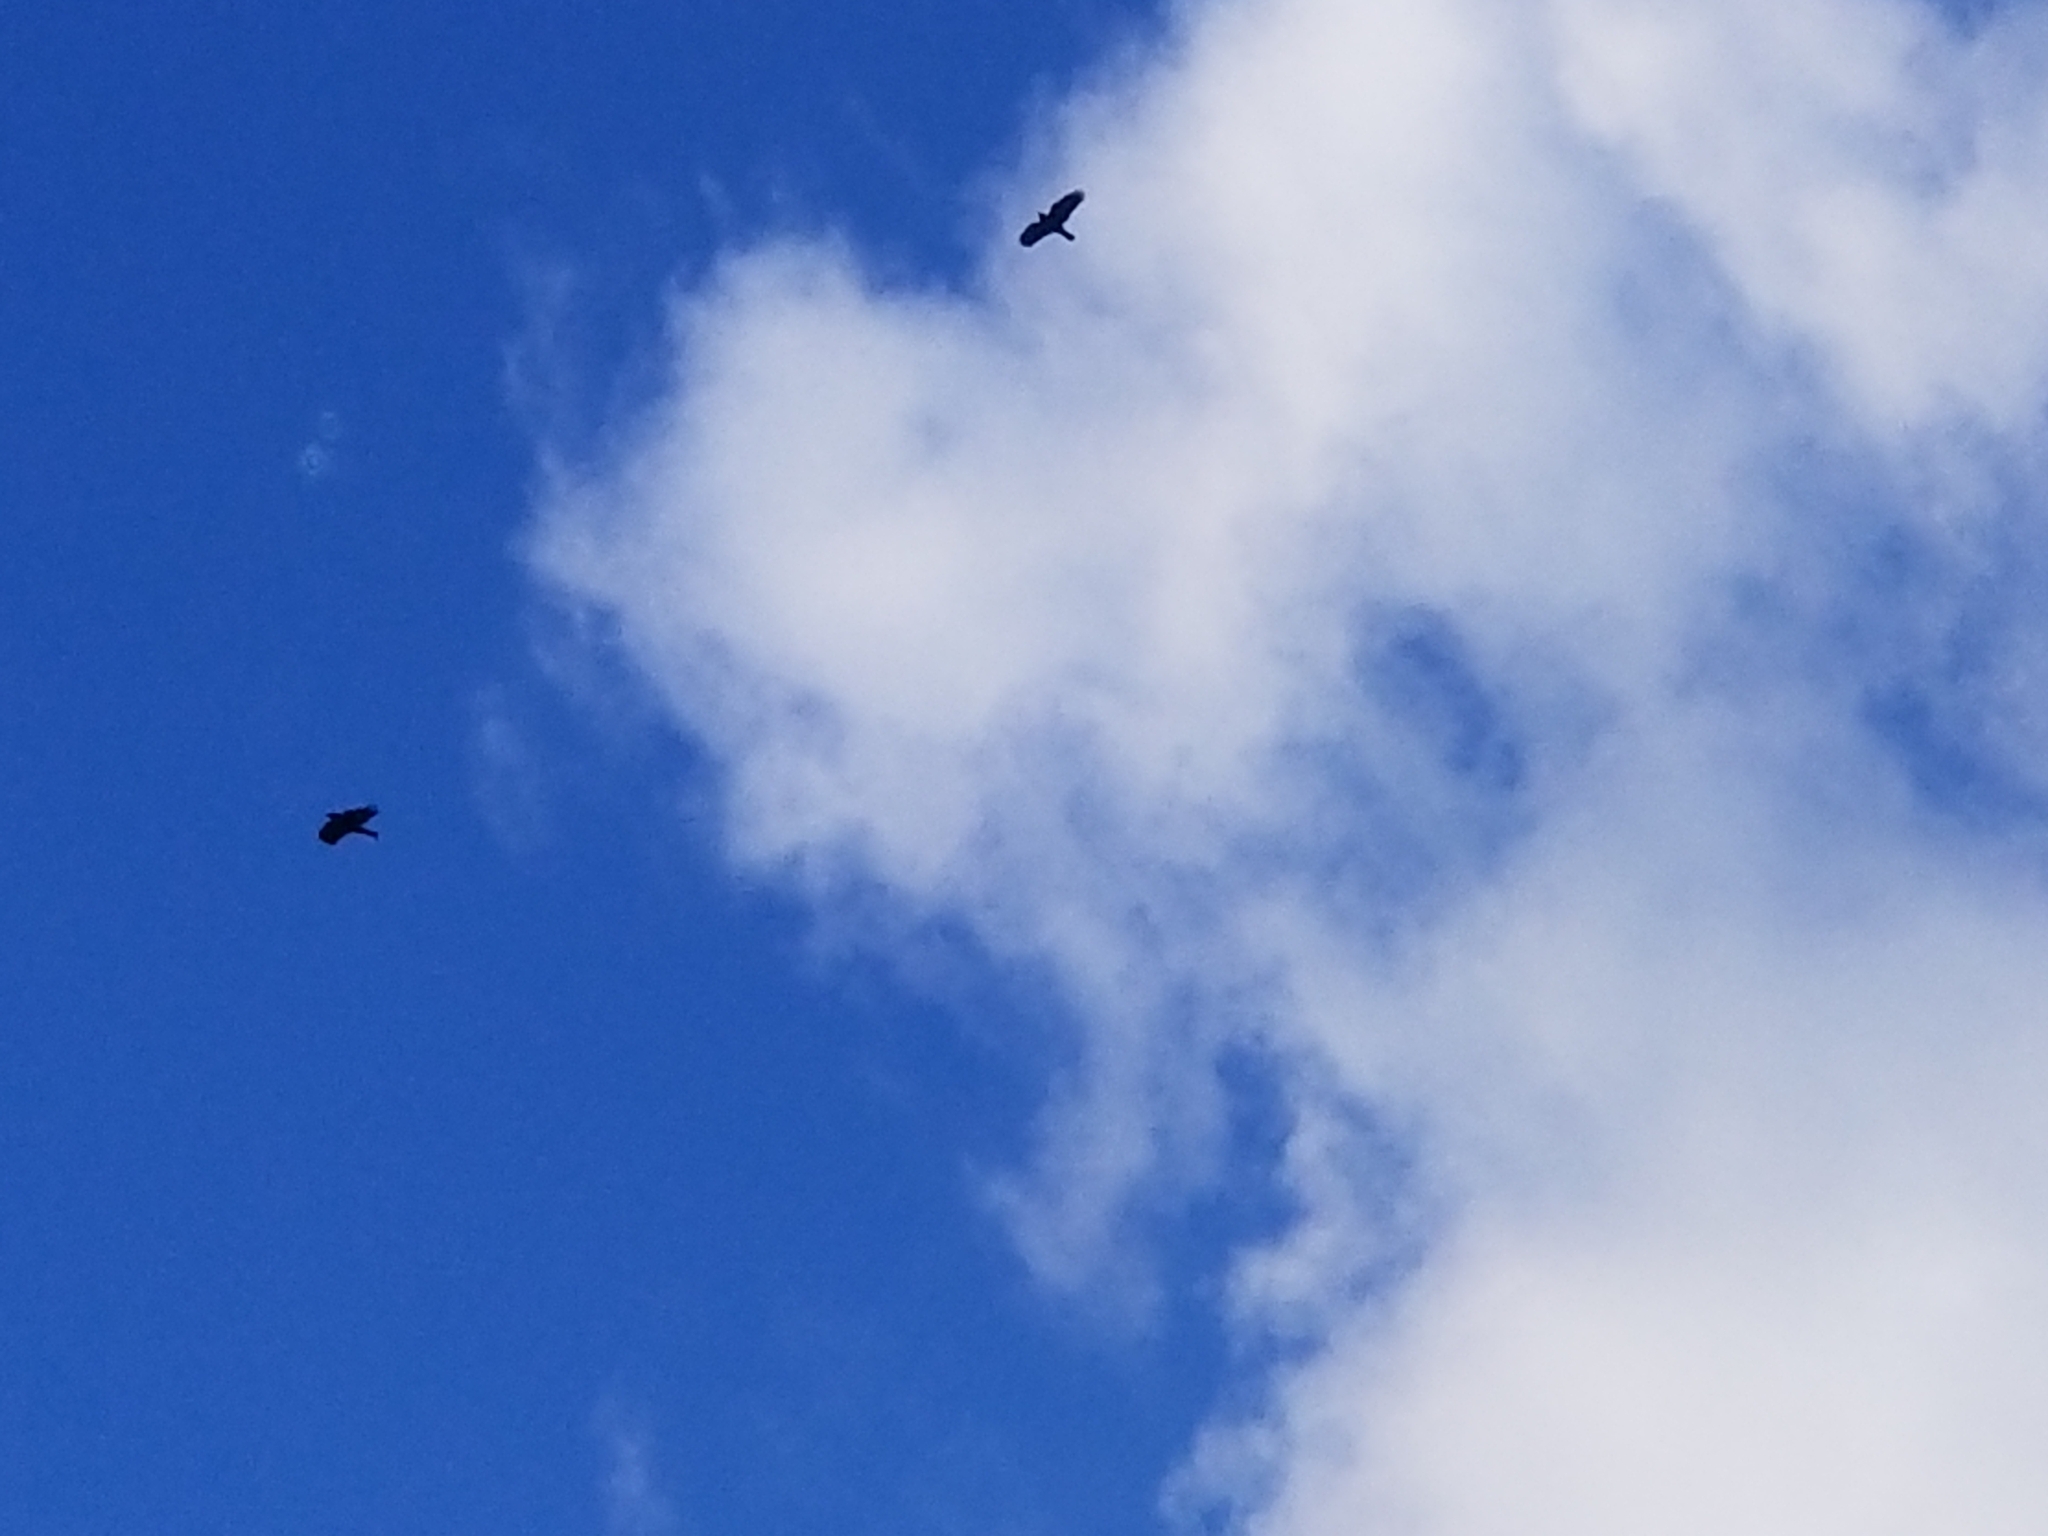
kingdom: Animalia
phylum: Chordata
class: Aves
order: Passeriformes
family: Corvidae
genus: Corvus
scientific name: Corvus brachyrhynchos
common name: American crow
